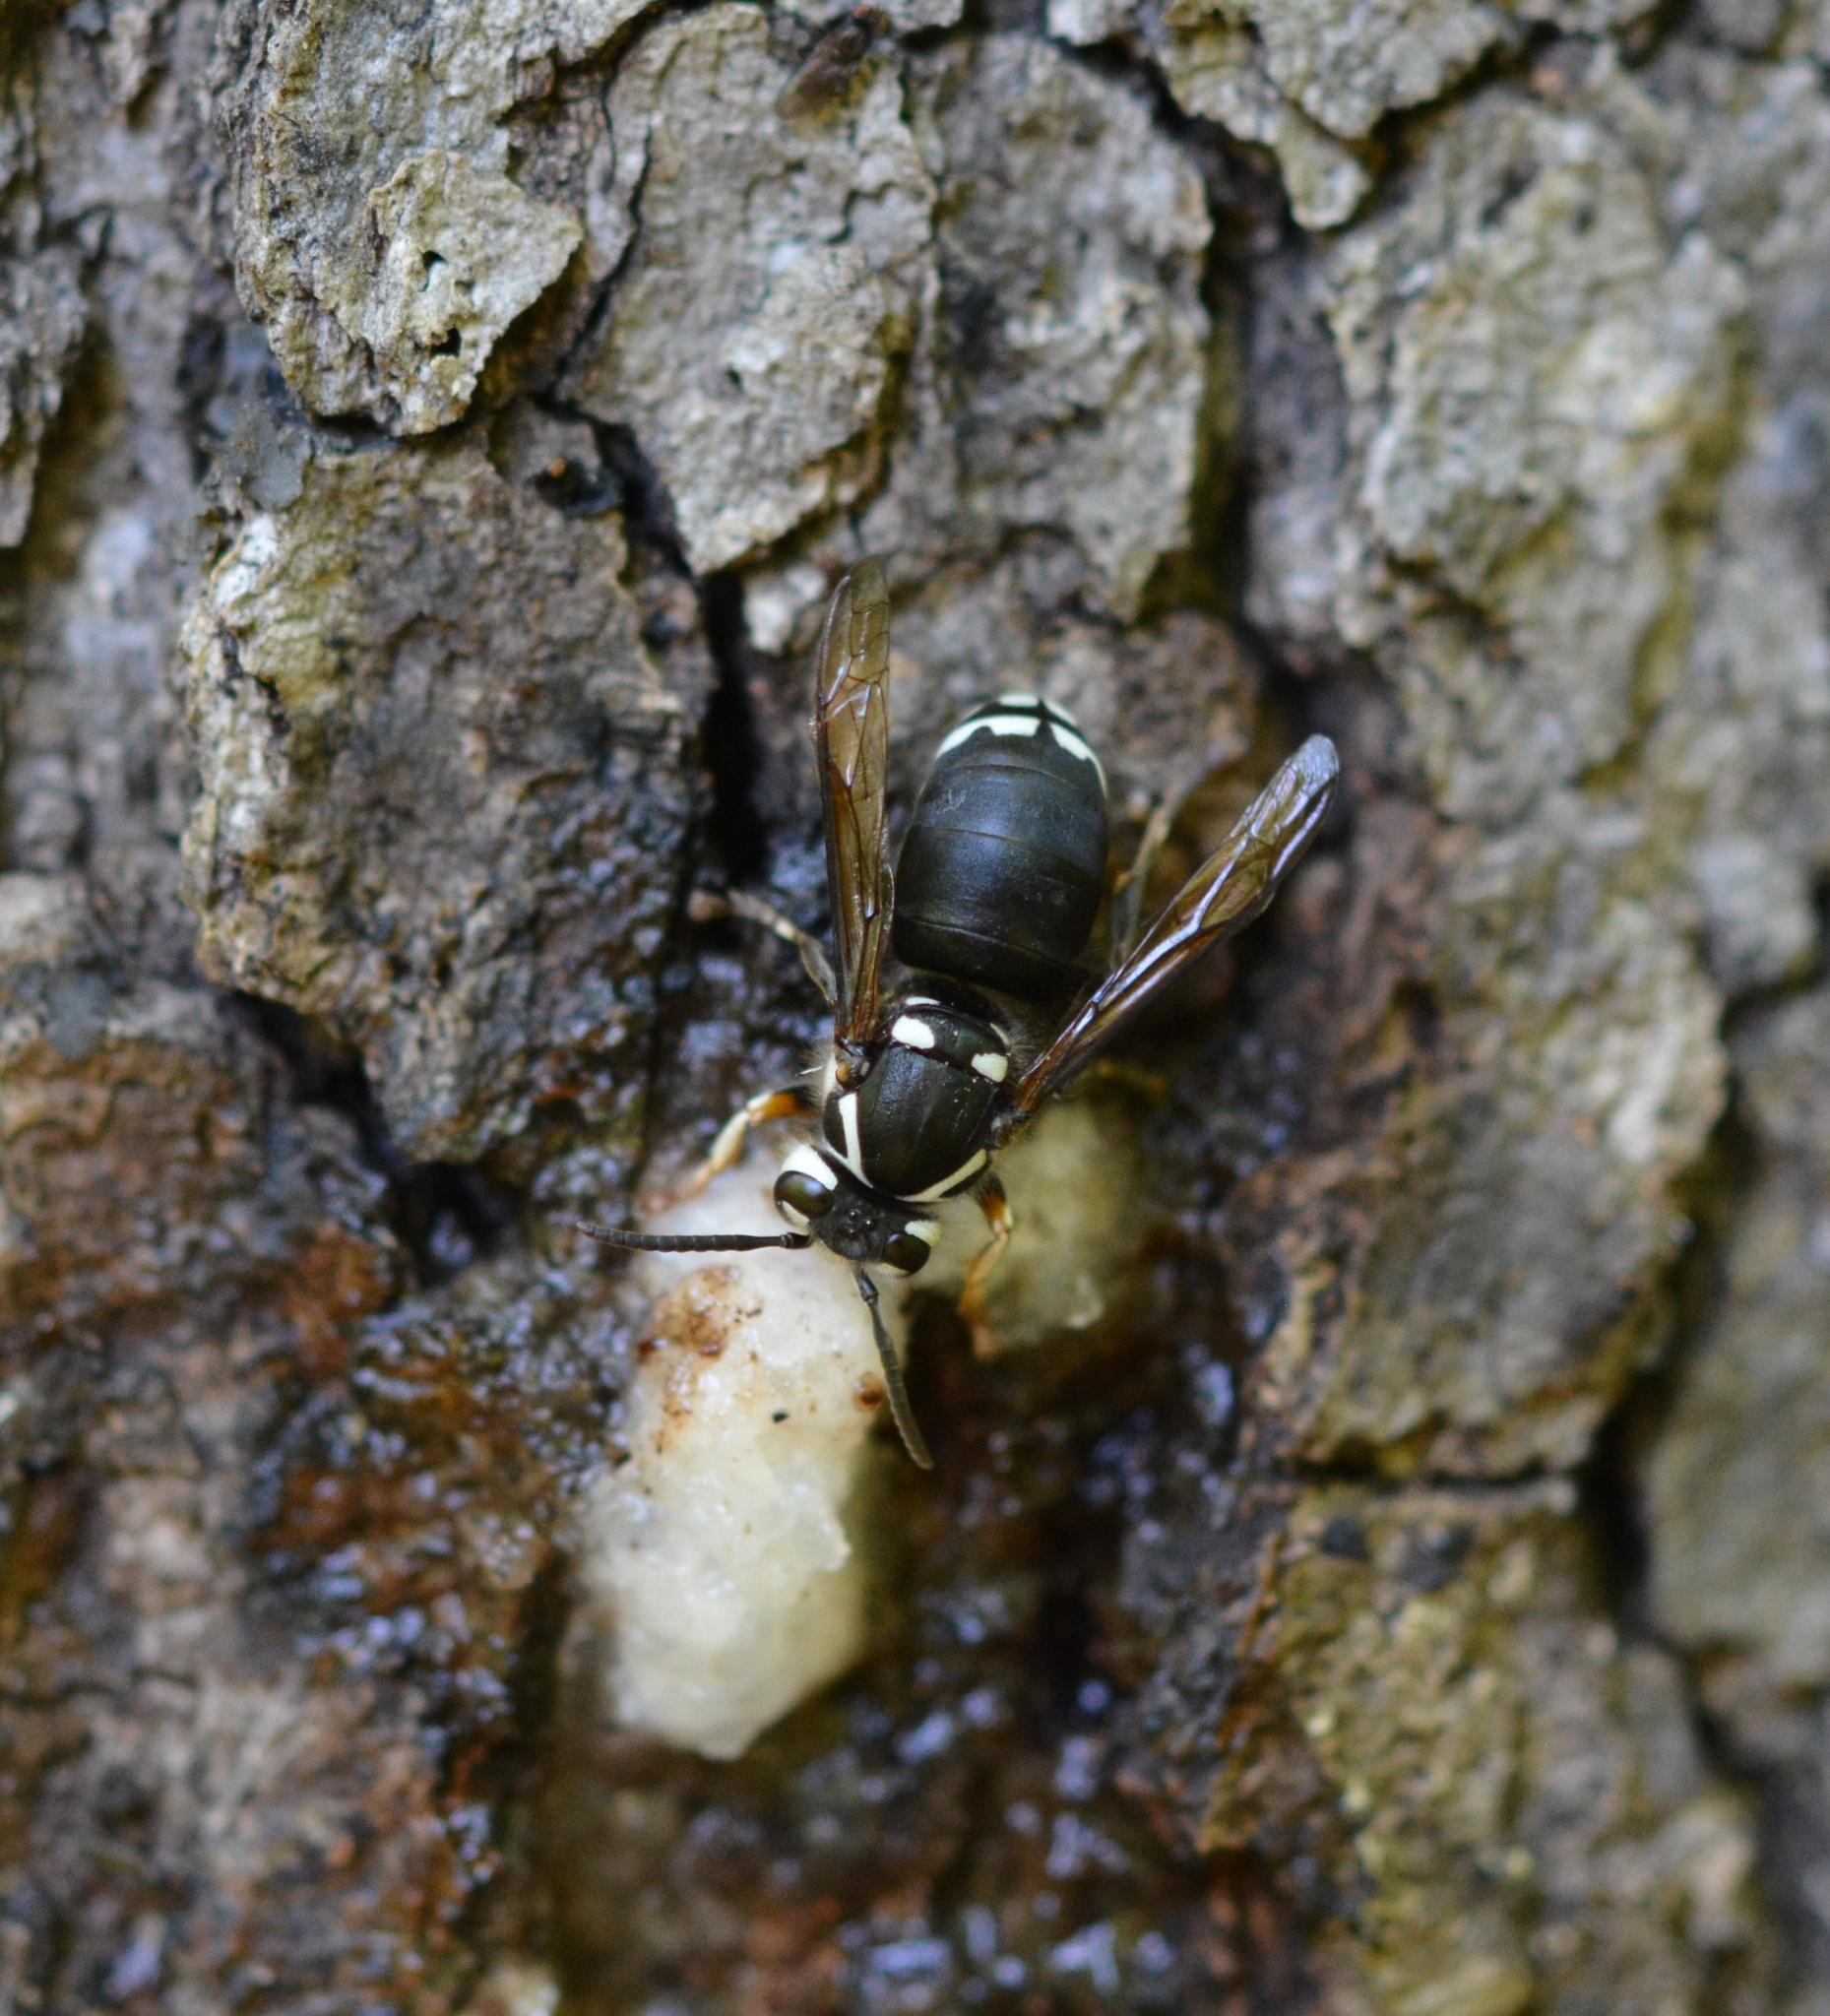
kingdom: Animalia
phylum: Arthropoda
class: Insecta
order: Hymenoptera
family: Vespidae
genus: Dolichovespula
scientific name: Dolichovespula maculata
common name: Bald-faced hornet
